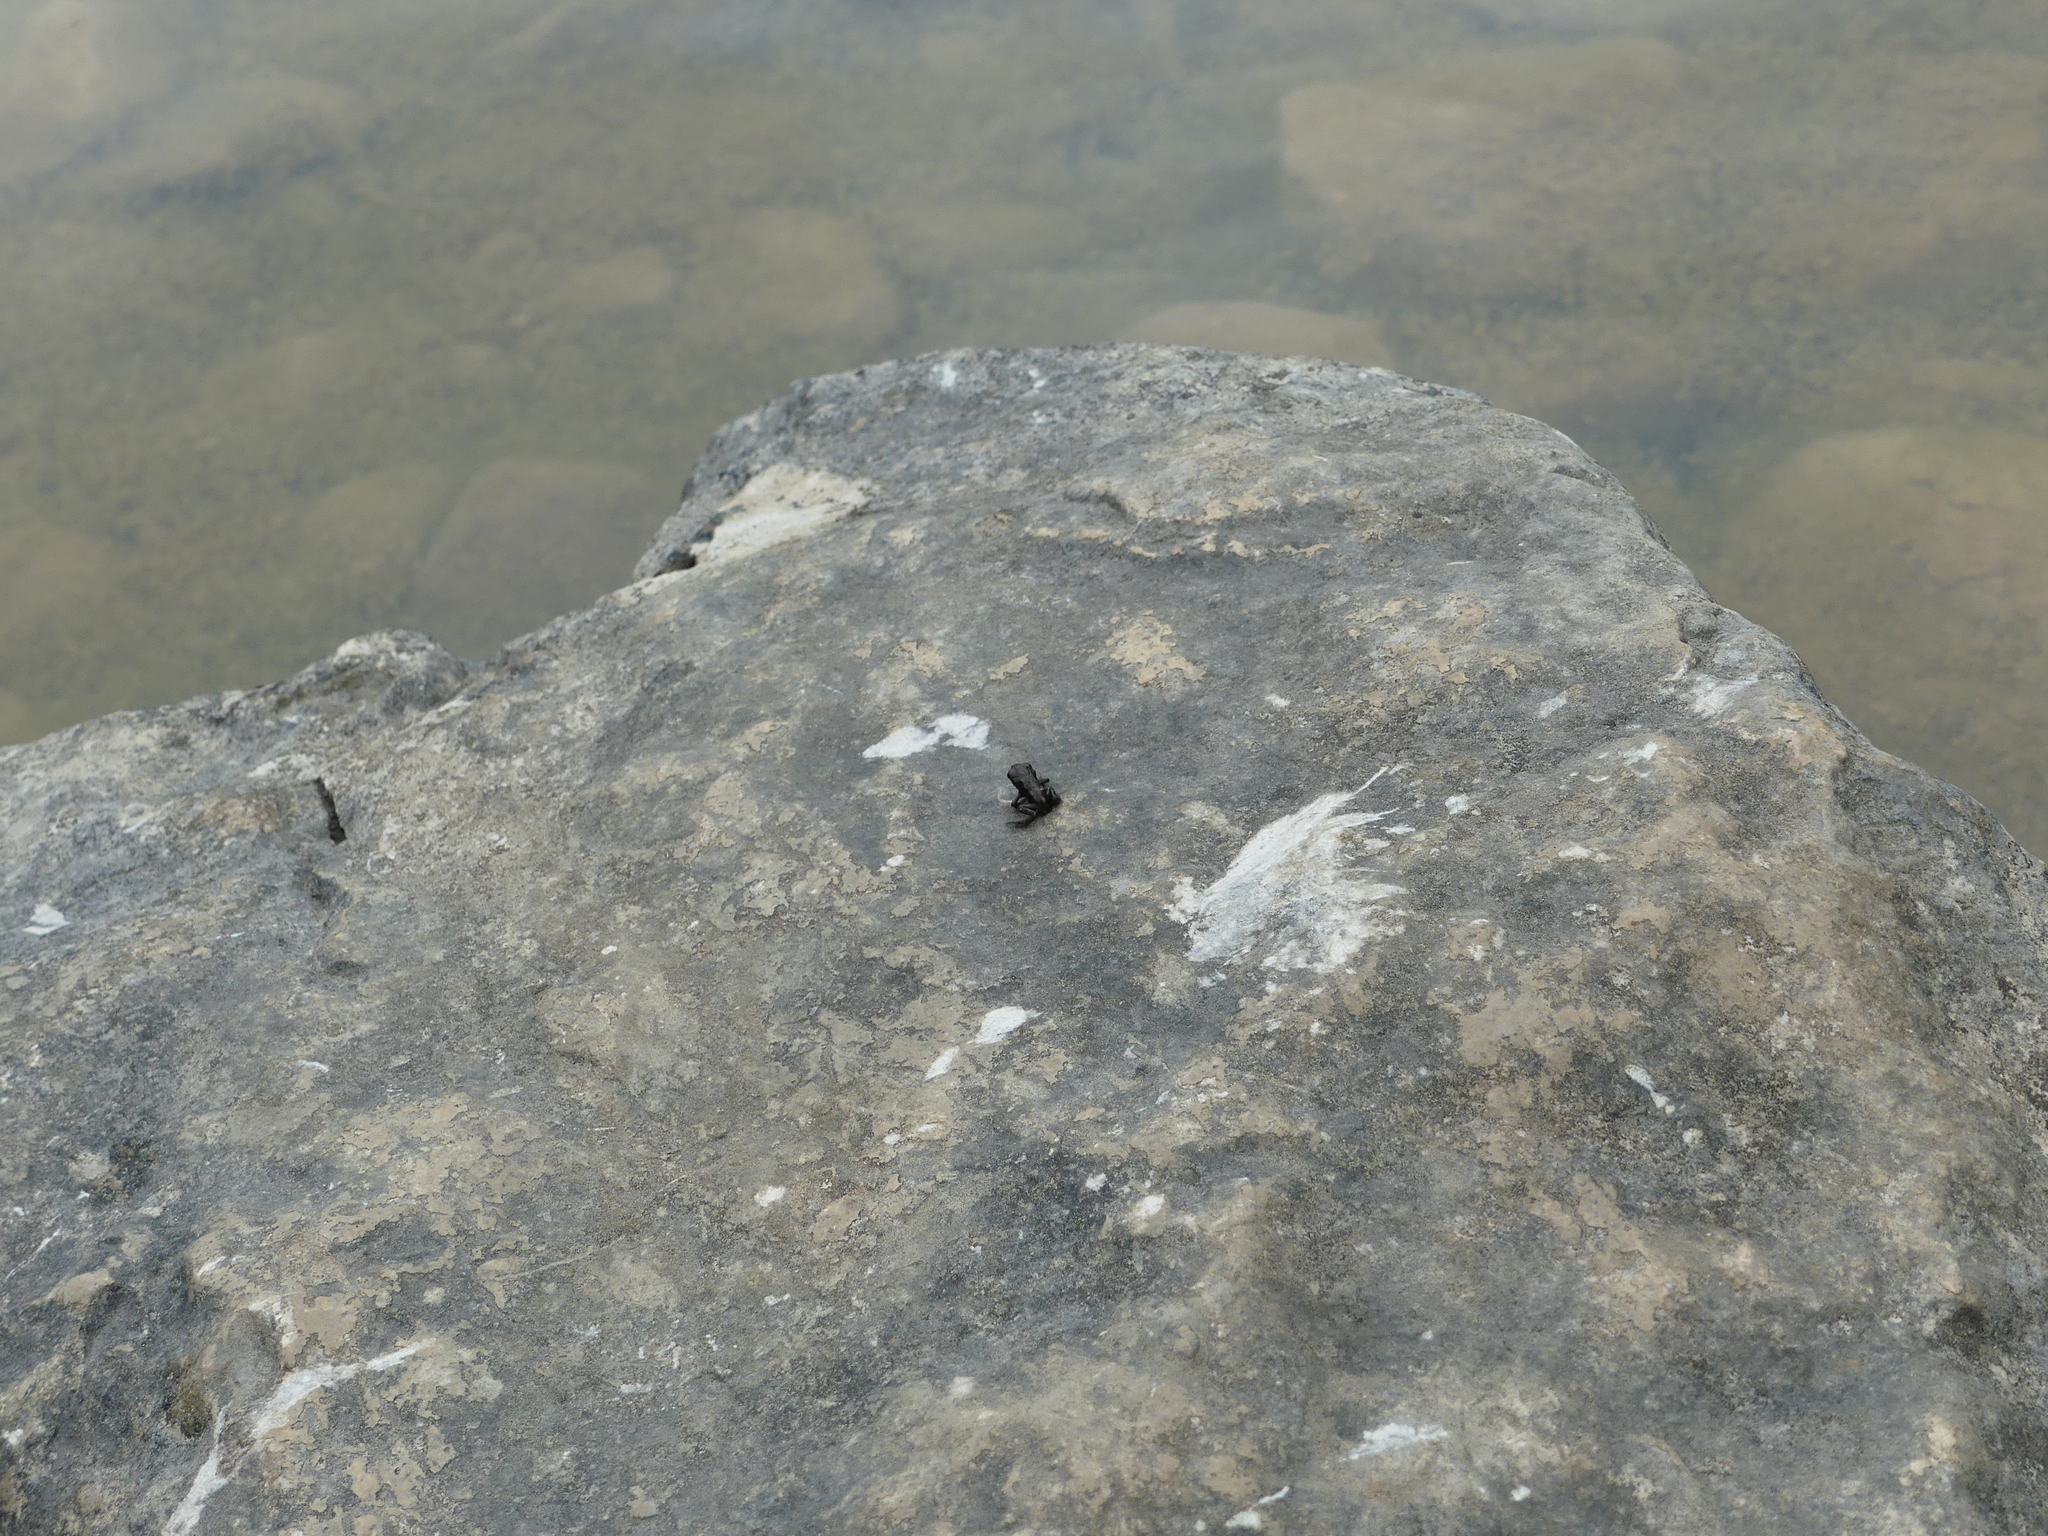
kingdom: Animalia
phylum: Chordata
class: Amphibia
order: Anura
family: Bufonidae
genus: Bufo
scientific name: Bufo bufo
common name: Common toad
